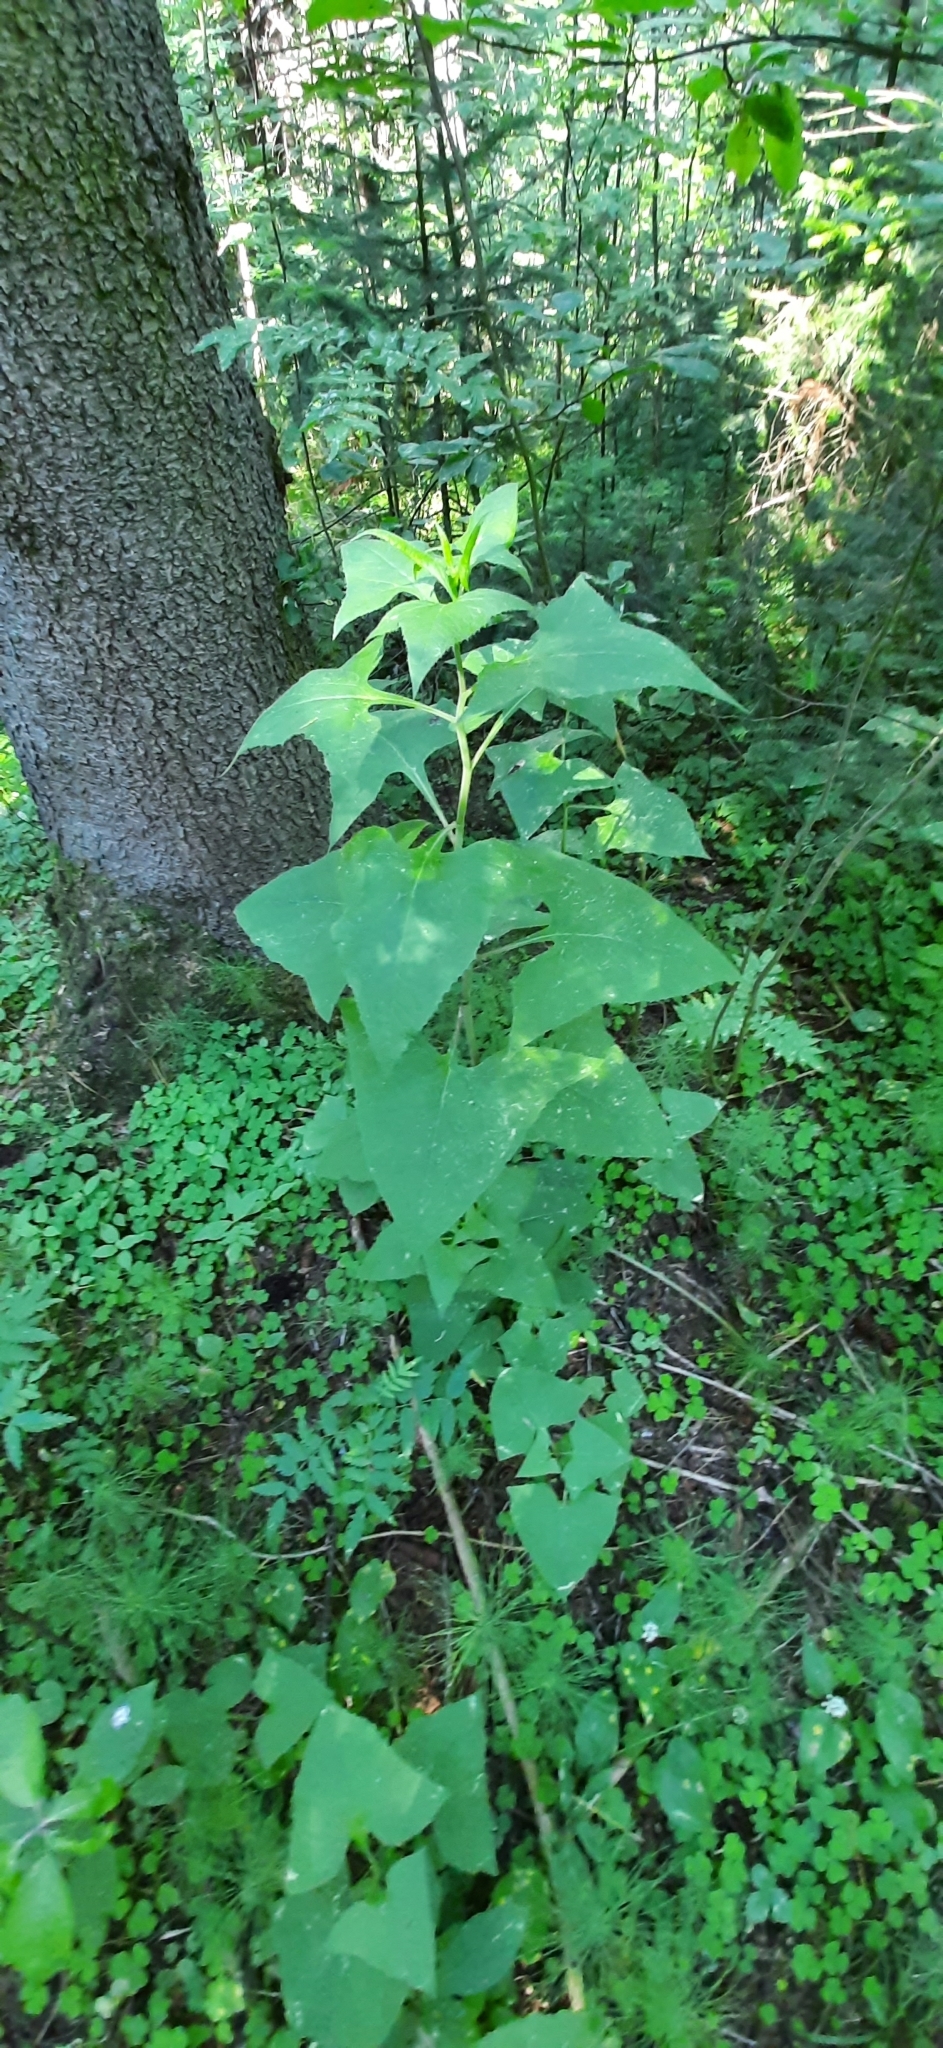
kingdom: Plantae
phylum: Tracheophyta
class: Magnoliopsida
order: Asterales
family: Asteraceae
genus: Parasenecio
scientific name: Parasenecio hastatus
